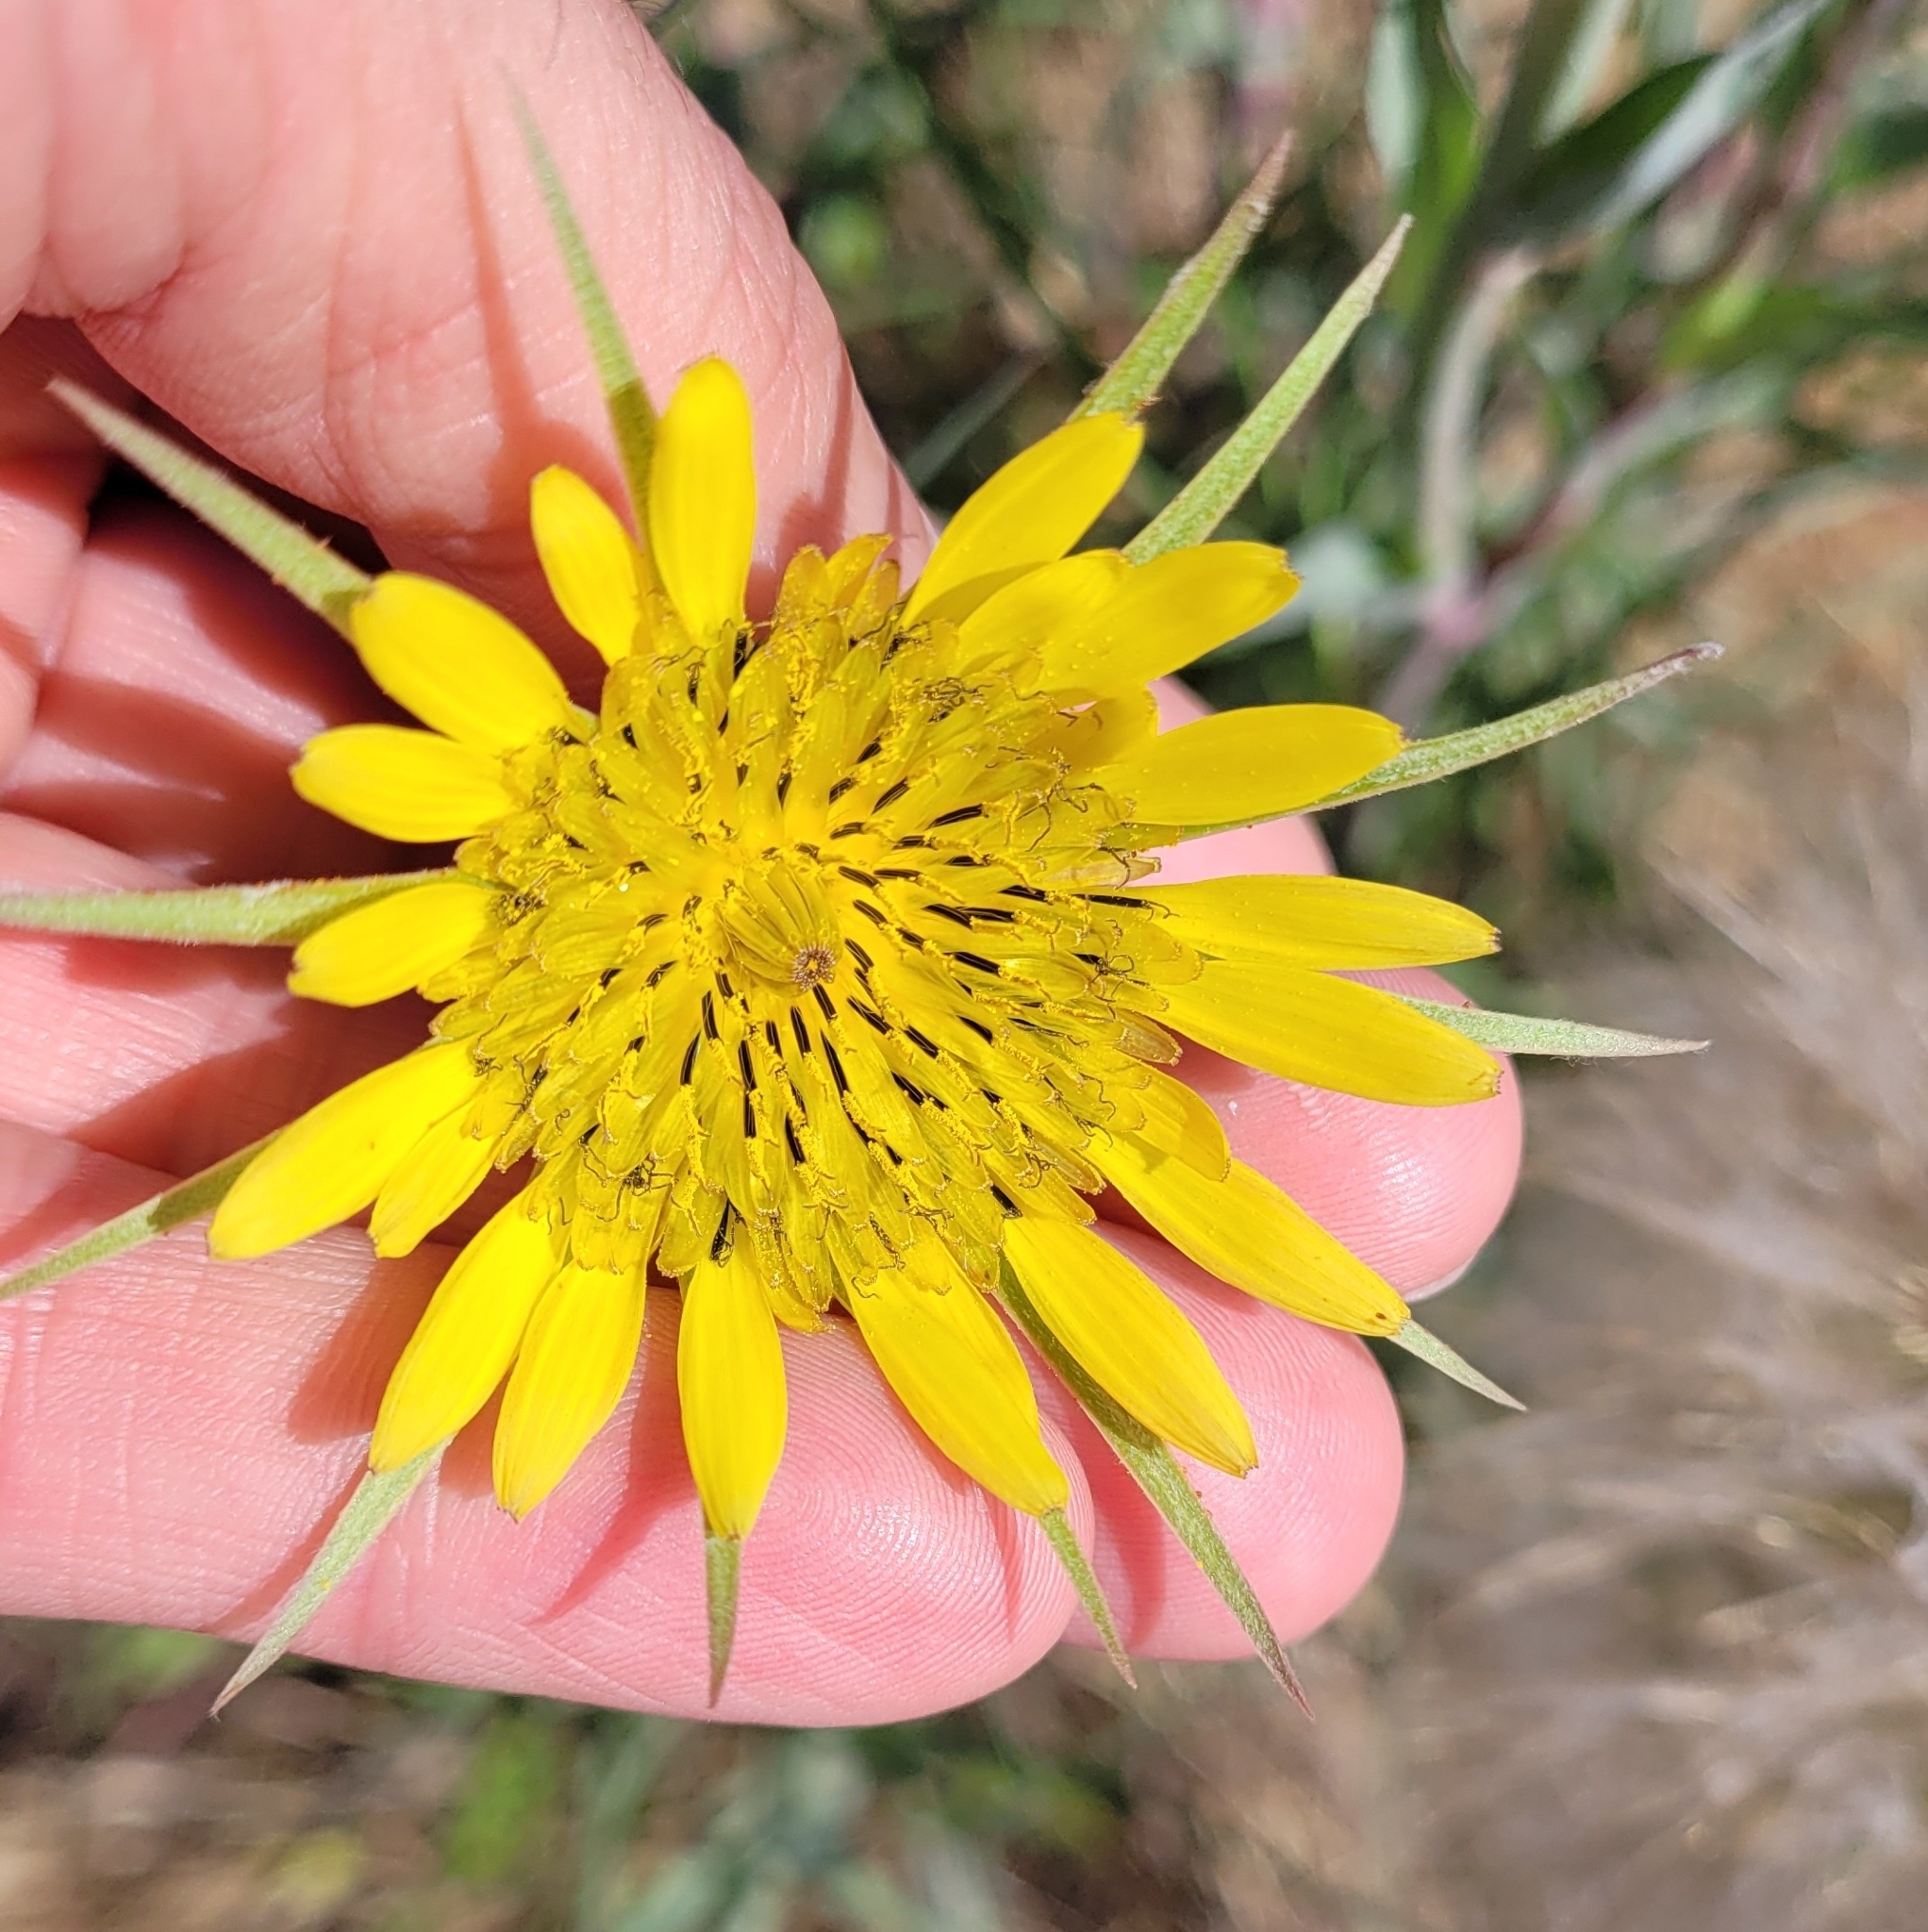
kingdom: Plantae
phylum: Tracheophyta
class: Magnoliopsida
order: Asterales
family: Asteraceae
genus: Tragopogon
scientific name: Tragopogon dubius
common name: Yellow salsify
